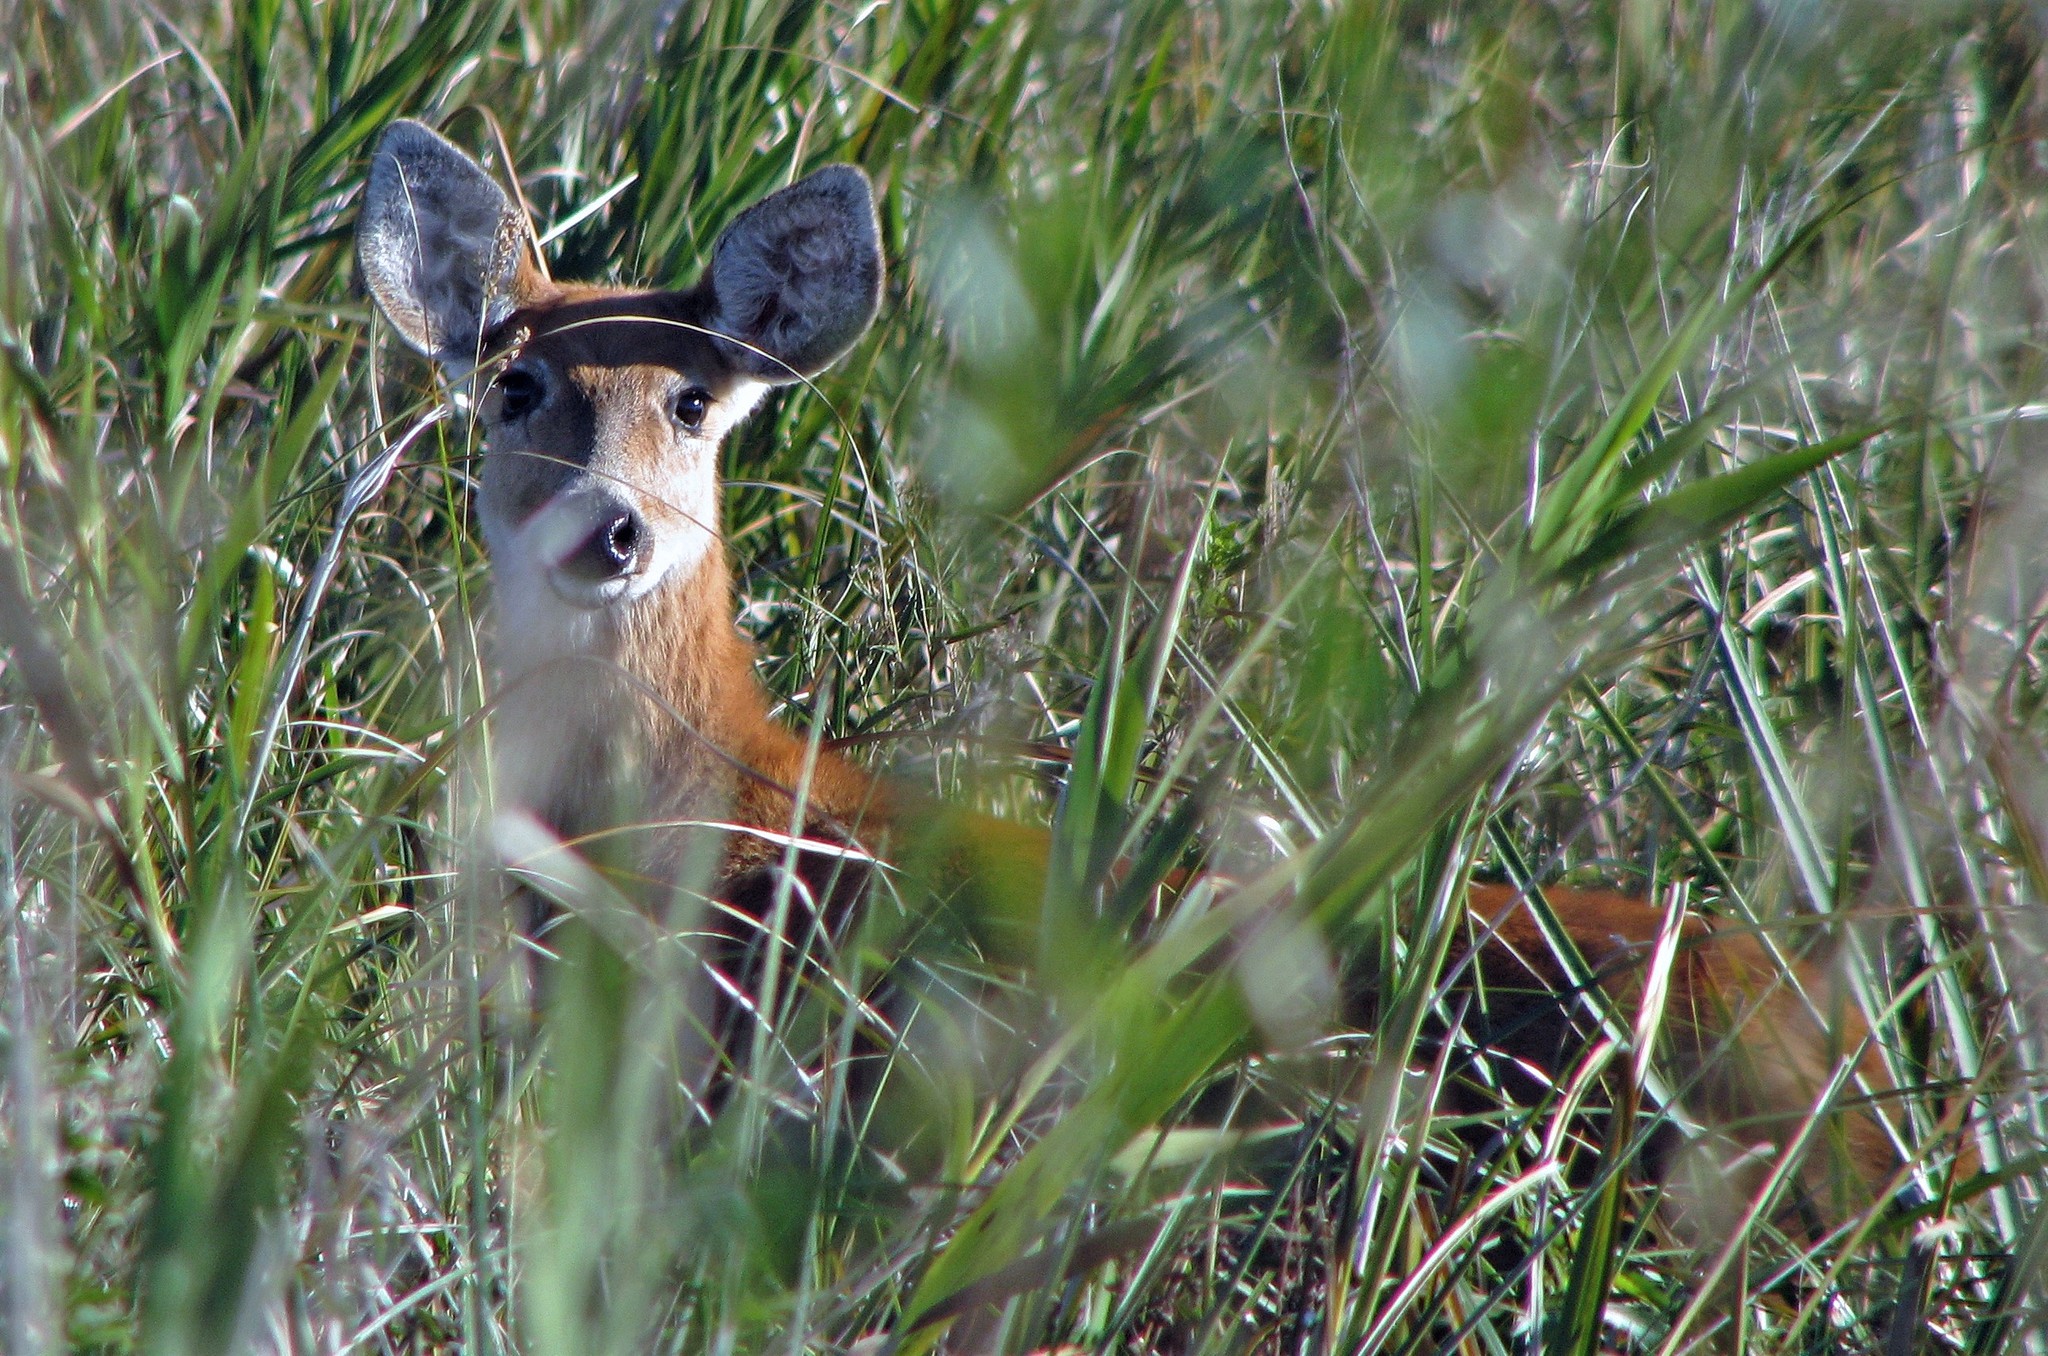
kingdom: Animalia
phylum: Chordata
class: Mammalia
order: Artiodactyla
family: Cervidae
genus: Blastocerus
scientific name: Blastocerus dichotomus
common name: Marsh deer
